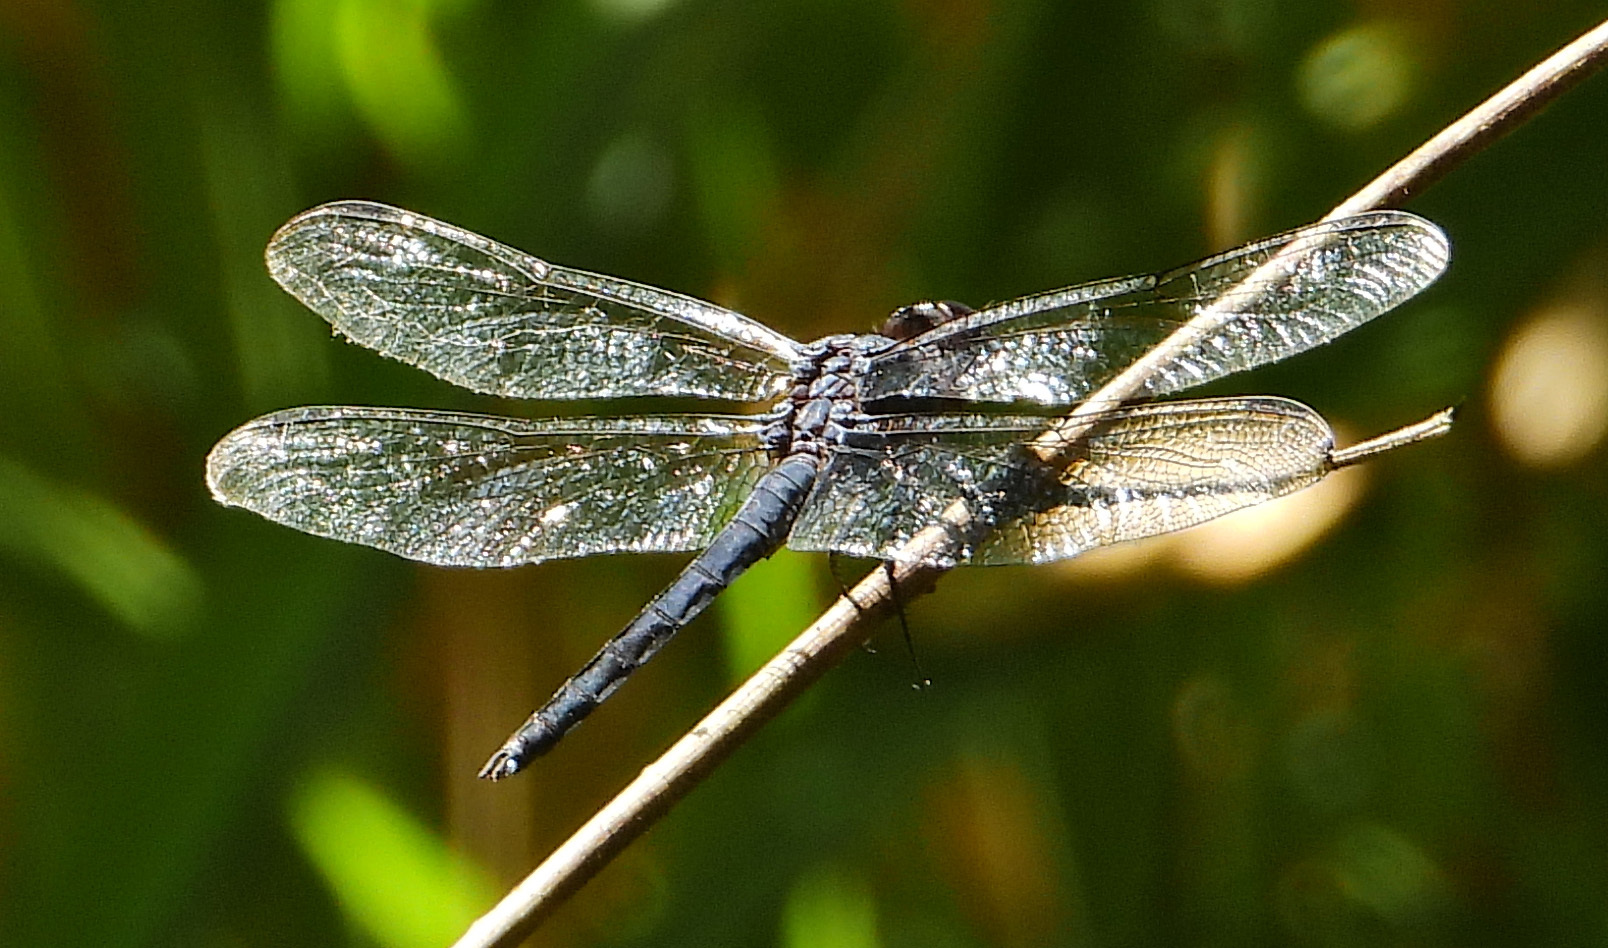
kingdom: Animalia
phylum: Arthropoda
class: Insecta
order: Odonata
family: Libellulidae
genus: Libellula
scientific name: Libellula incesta
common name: Slaty skimmer
